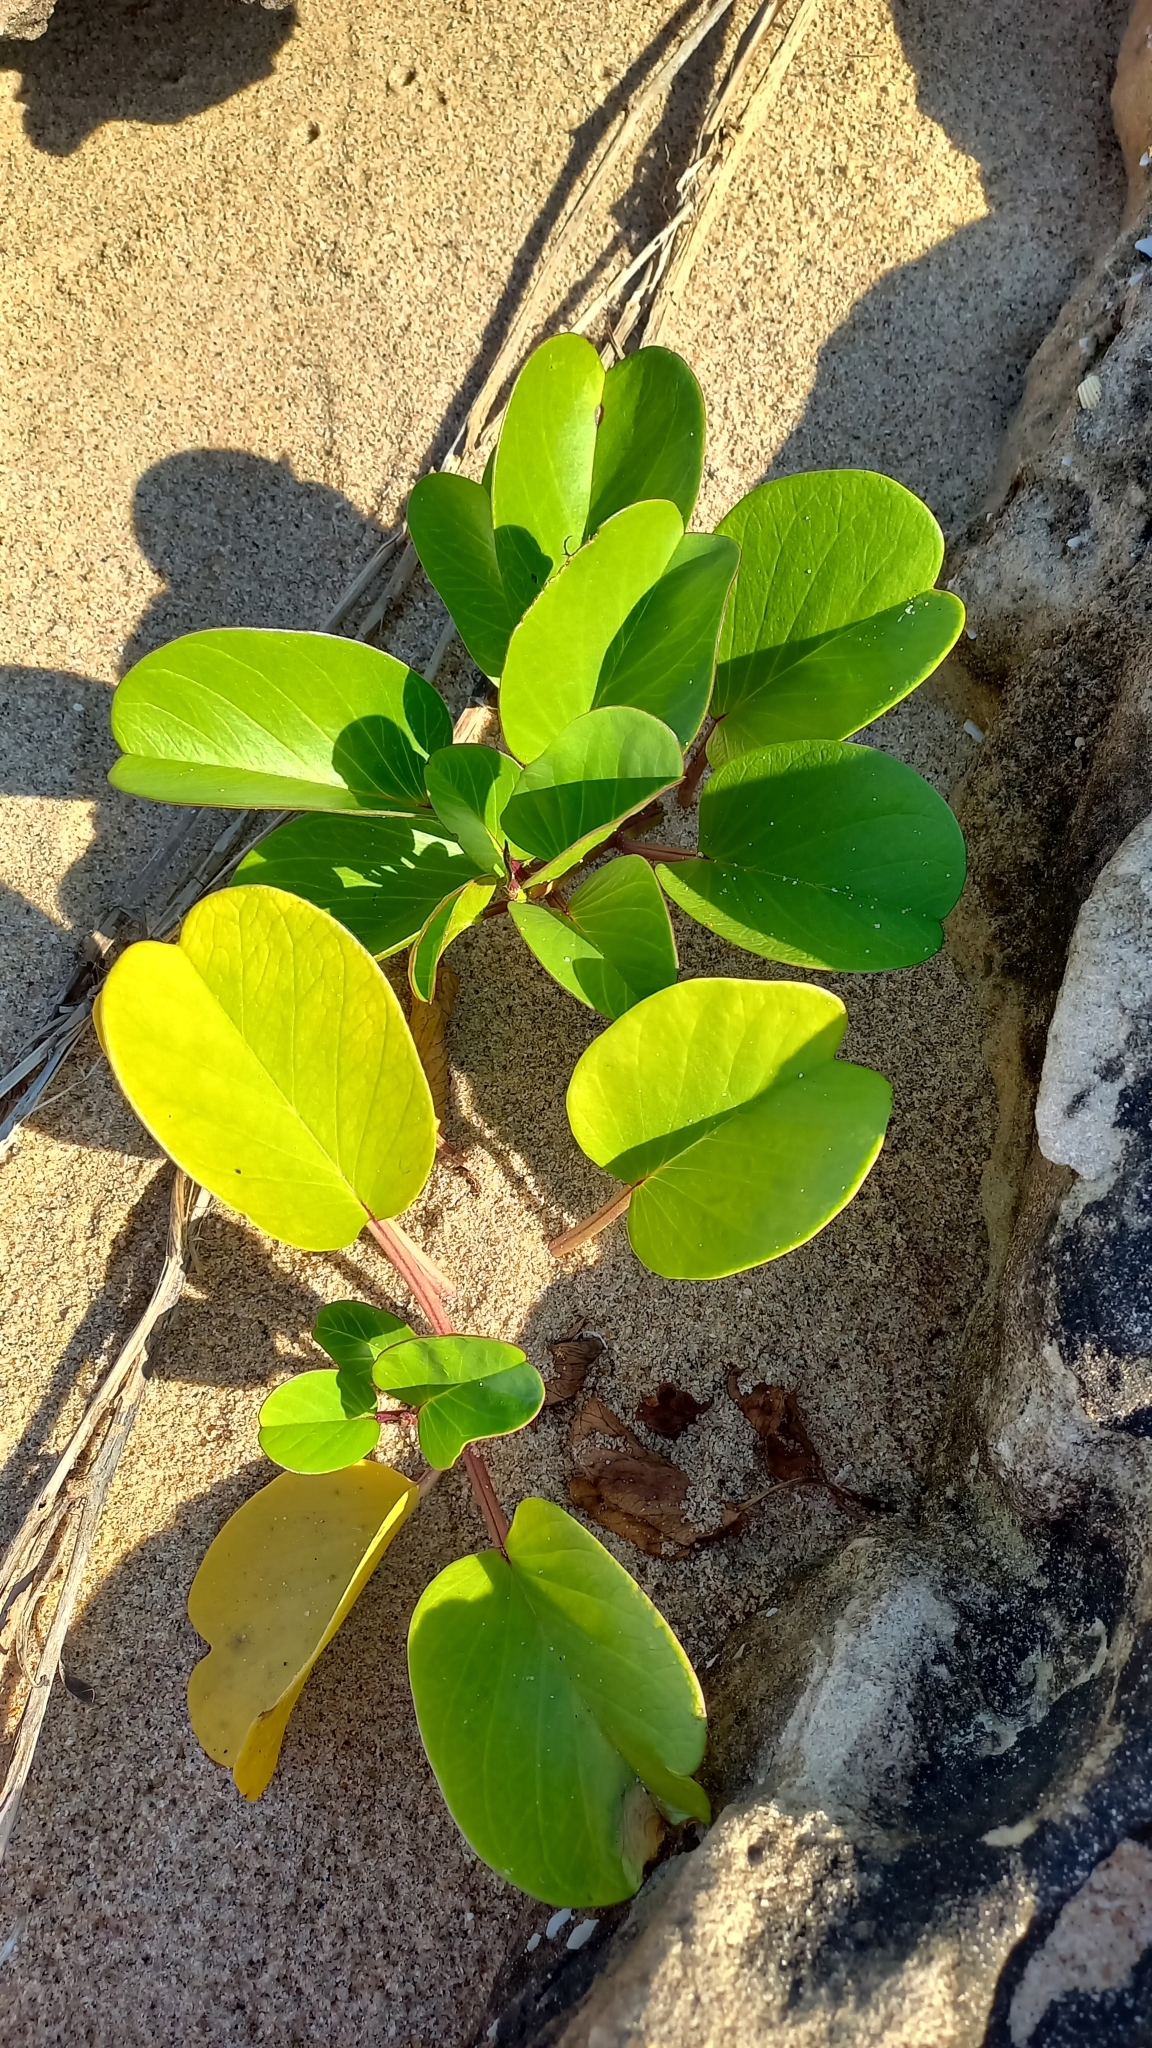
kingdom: Plantae
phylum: Tracheophyta
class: Magnoliopsida
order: Solanales
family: Convolvulaceae
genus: Ipomoea
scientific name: Ipomoea pes-caprae
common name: Beach morning glory
